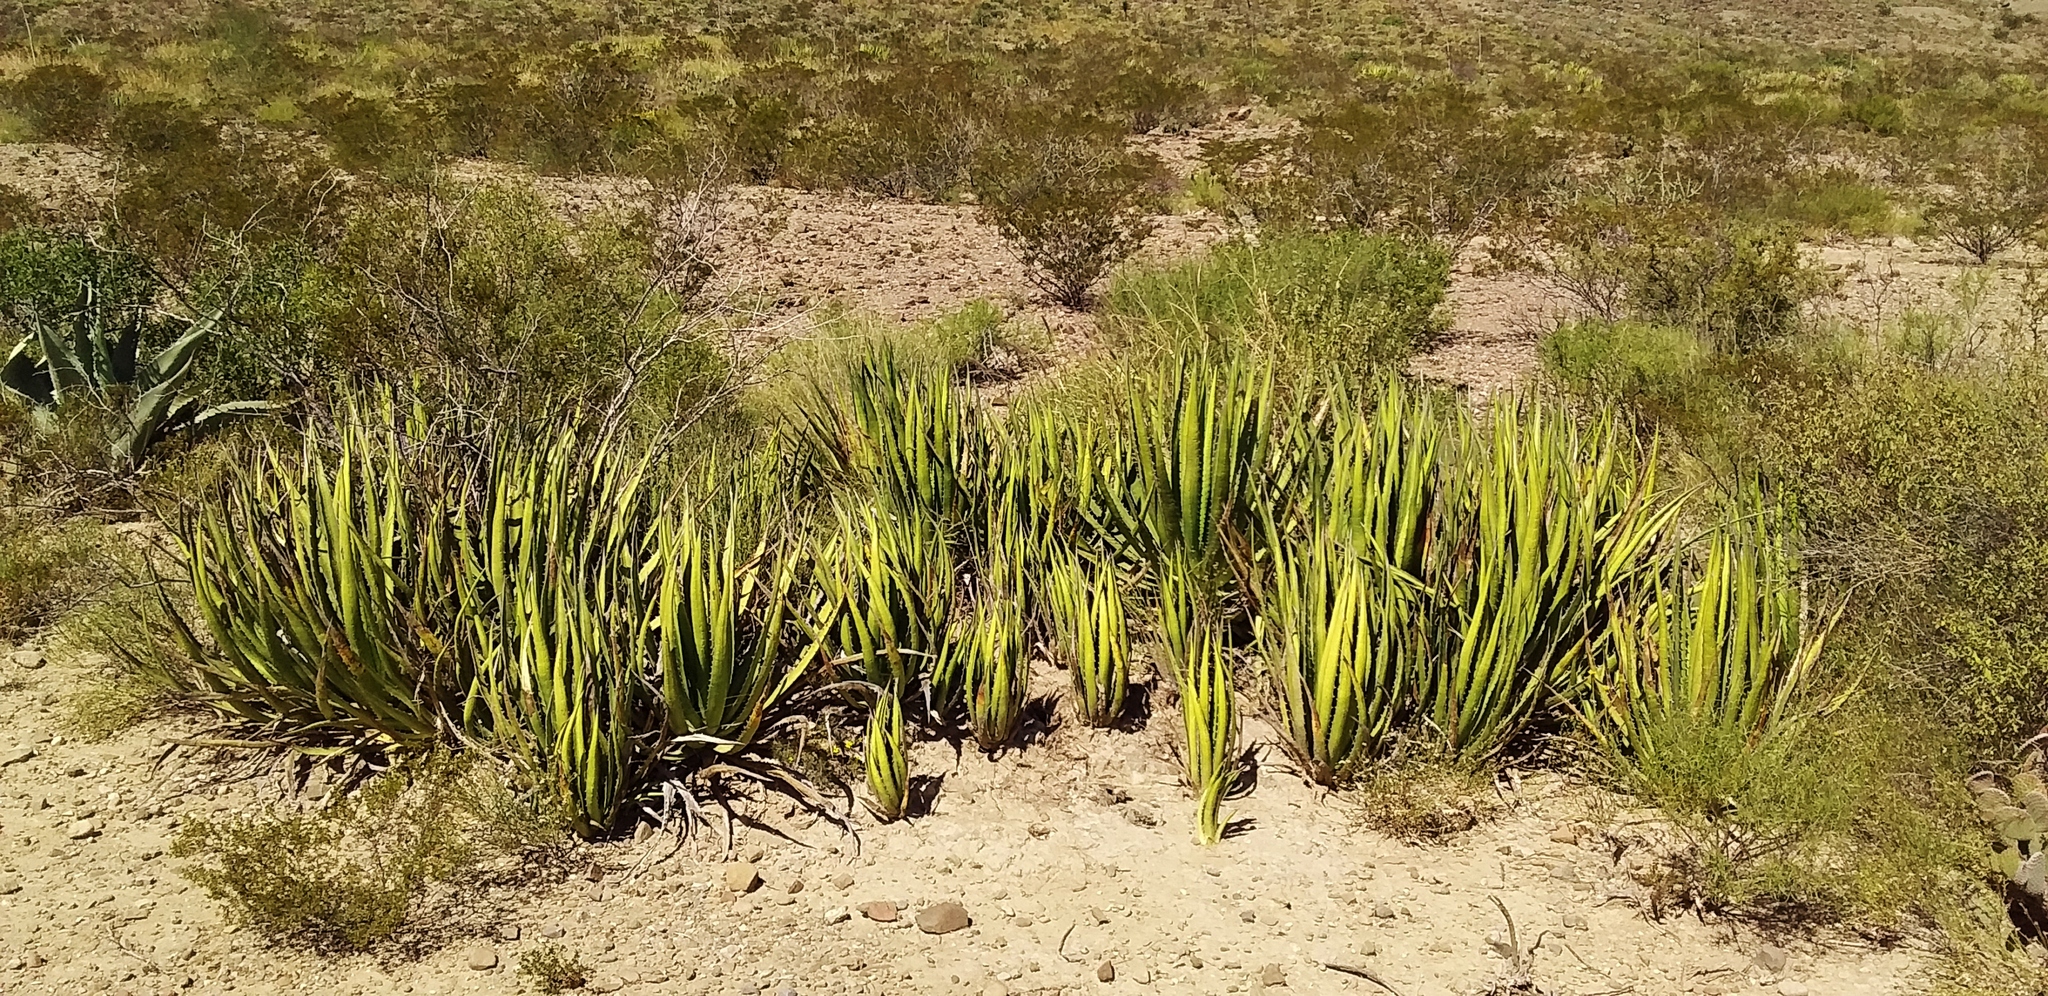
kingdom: Plantae
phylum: Tracheophyta
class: Liliopsida
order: Asparagales
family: Asparagaceae
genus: Agave
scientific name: Agave lechuguilla
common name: Lecheguilla agave
